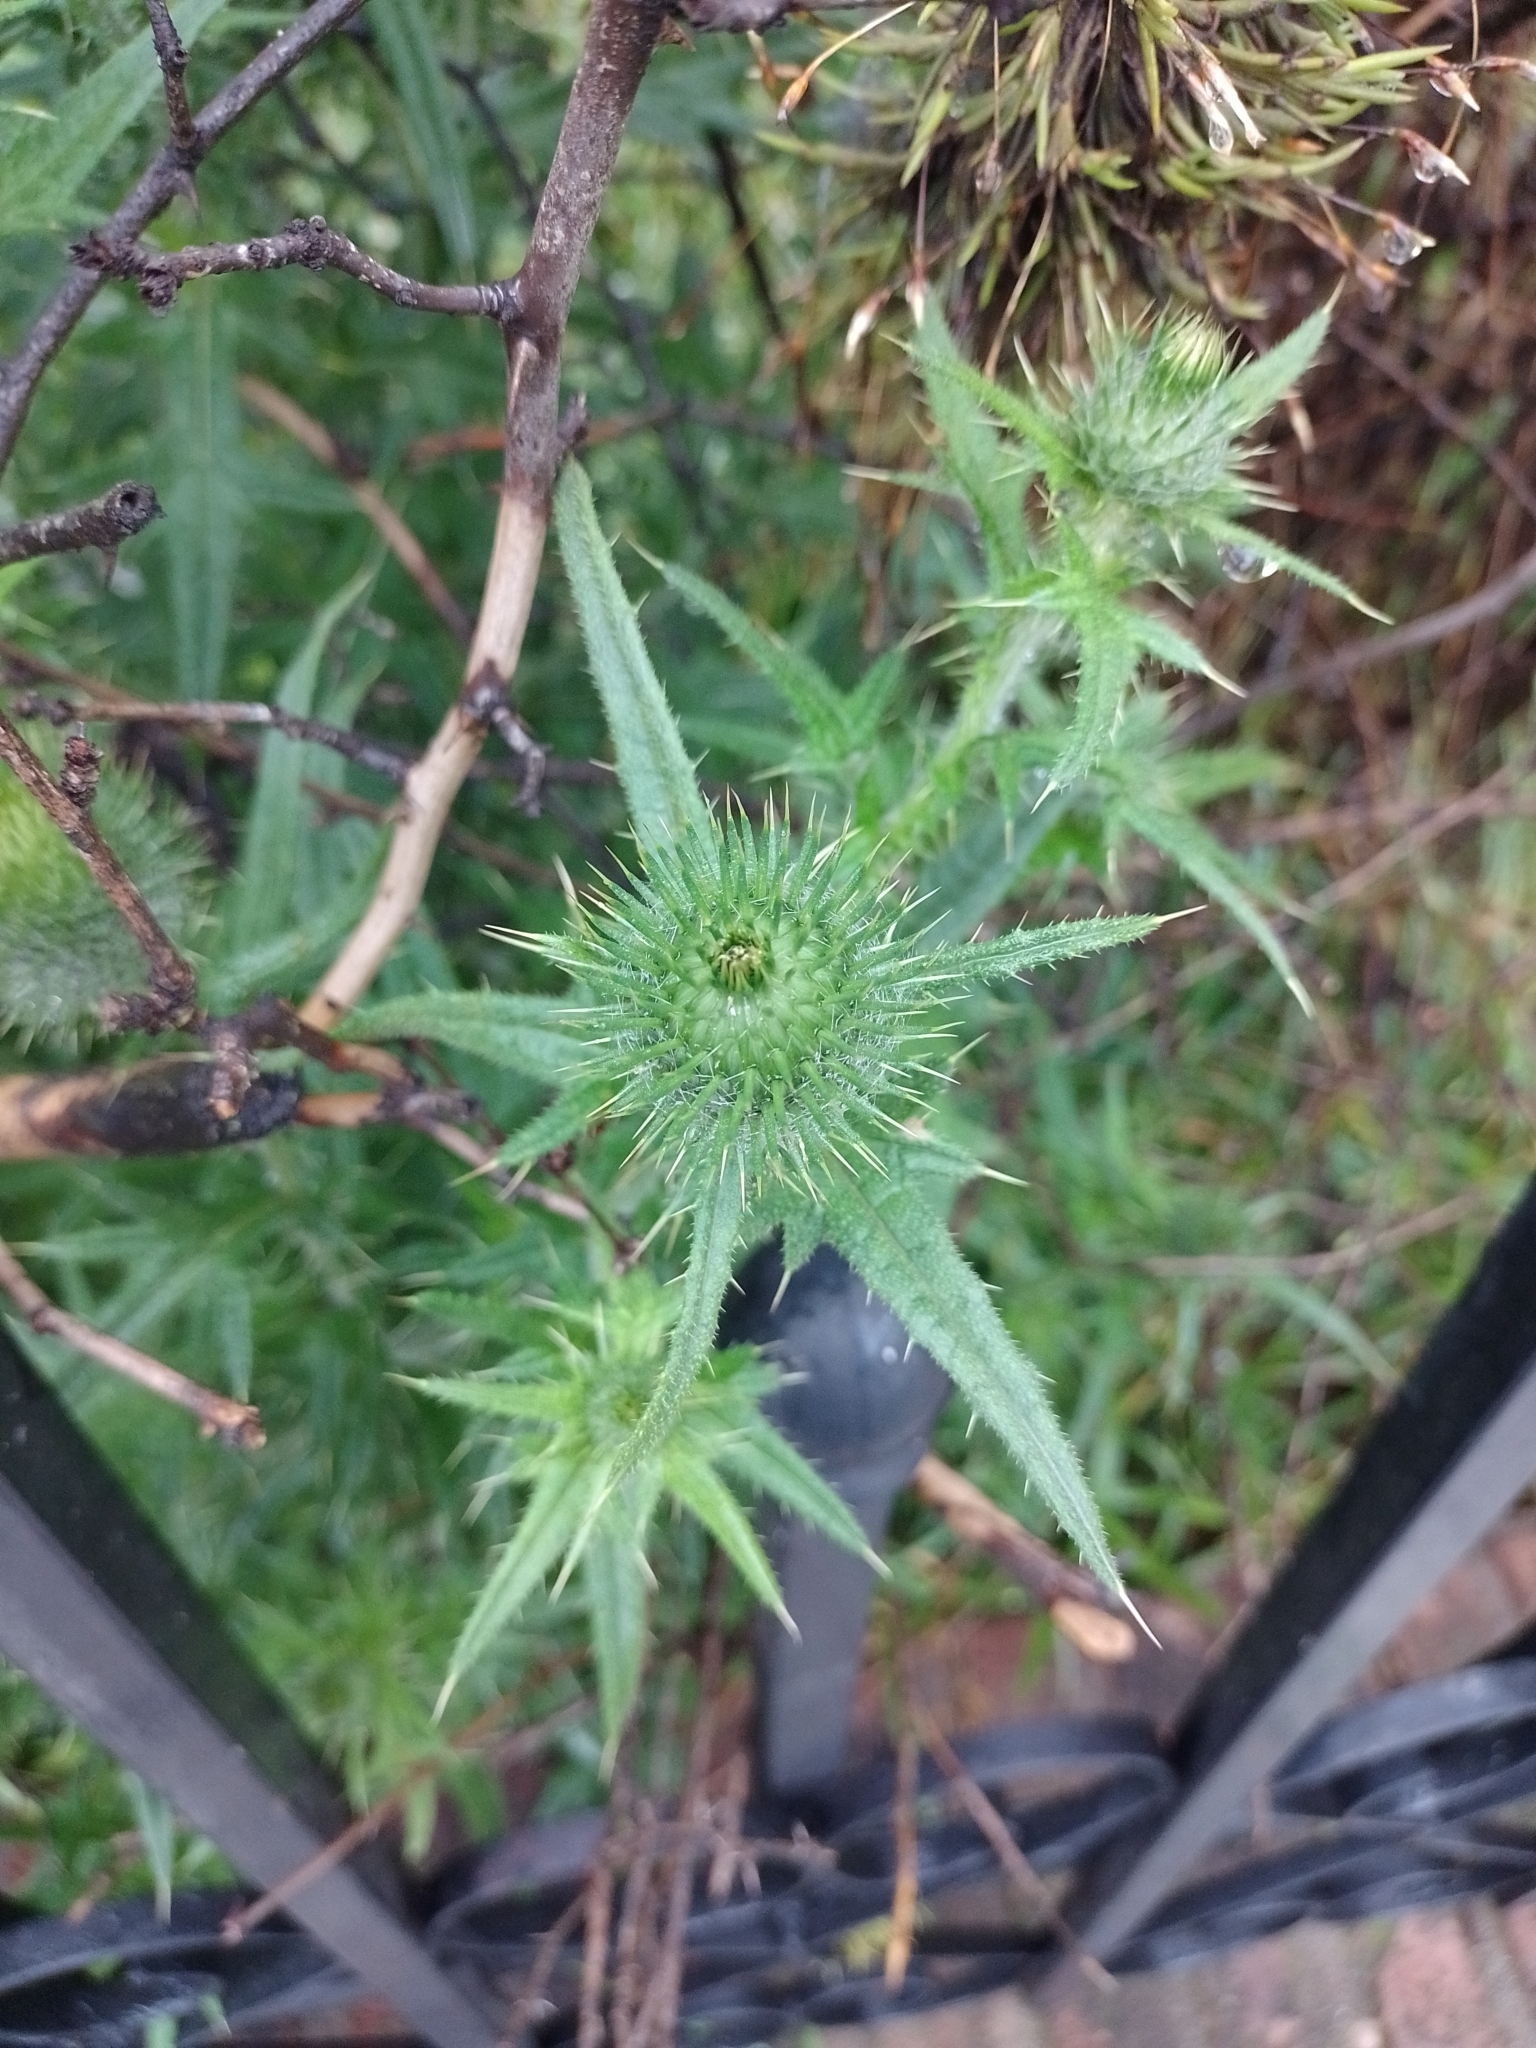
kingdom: Plantae
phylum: Tracheophyta
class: Magnoliopsida
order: Asterales
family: Asteraceae
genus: Cirsium
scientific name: Cirsium vulgare
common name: Bull thistle
